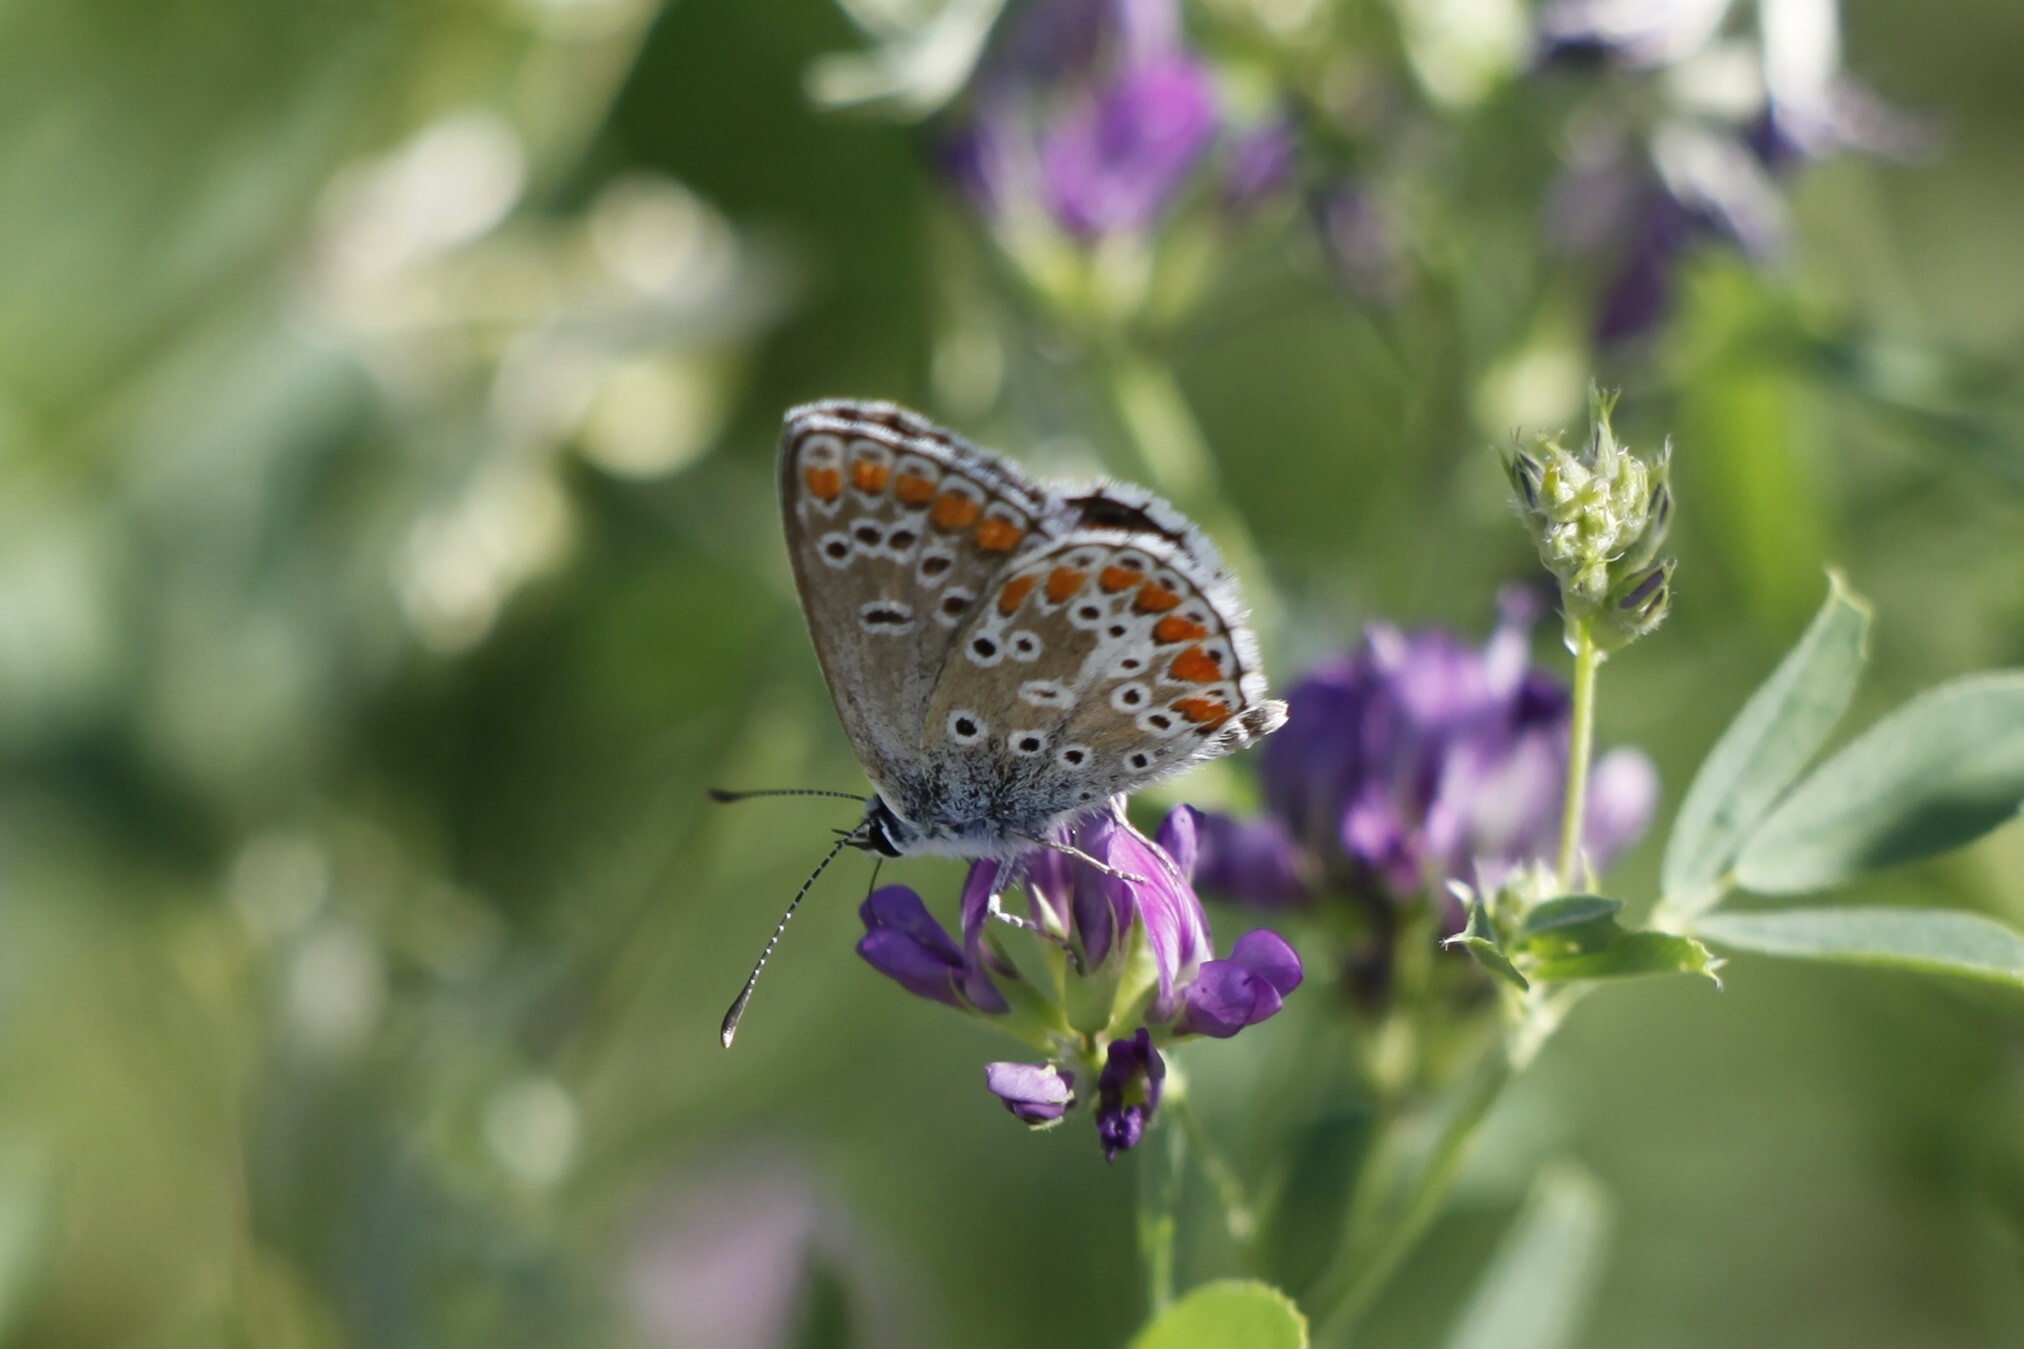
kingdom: Animalia
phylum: Arthropoda
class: Insecta
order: Lepidoptera
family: Lycaenidae
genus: Aricia
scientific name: Aricia agestis
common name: Brown argus
